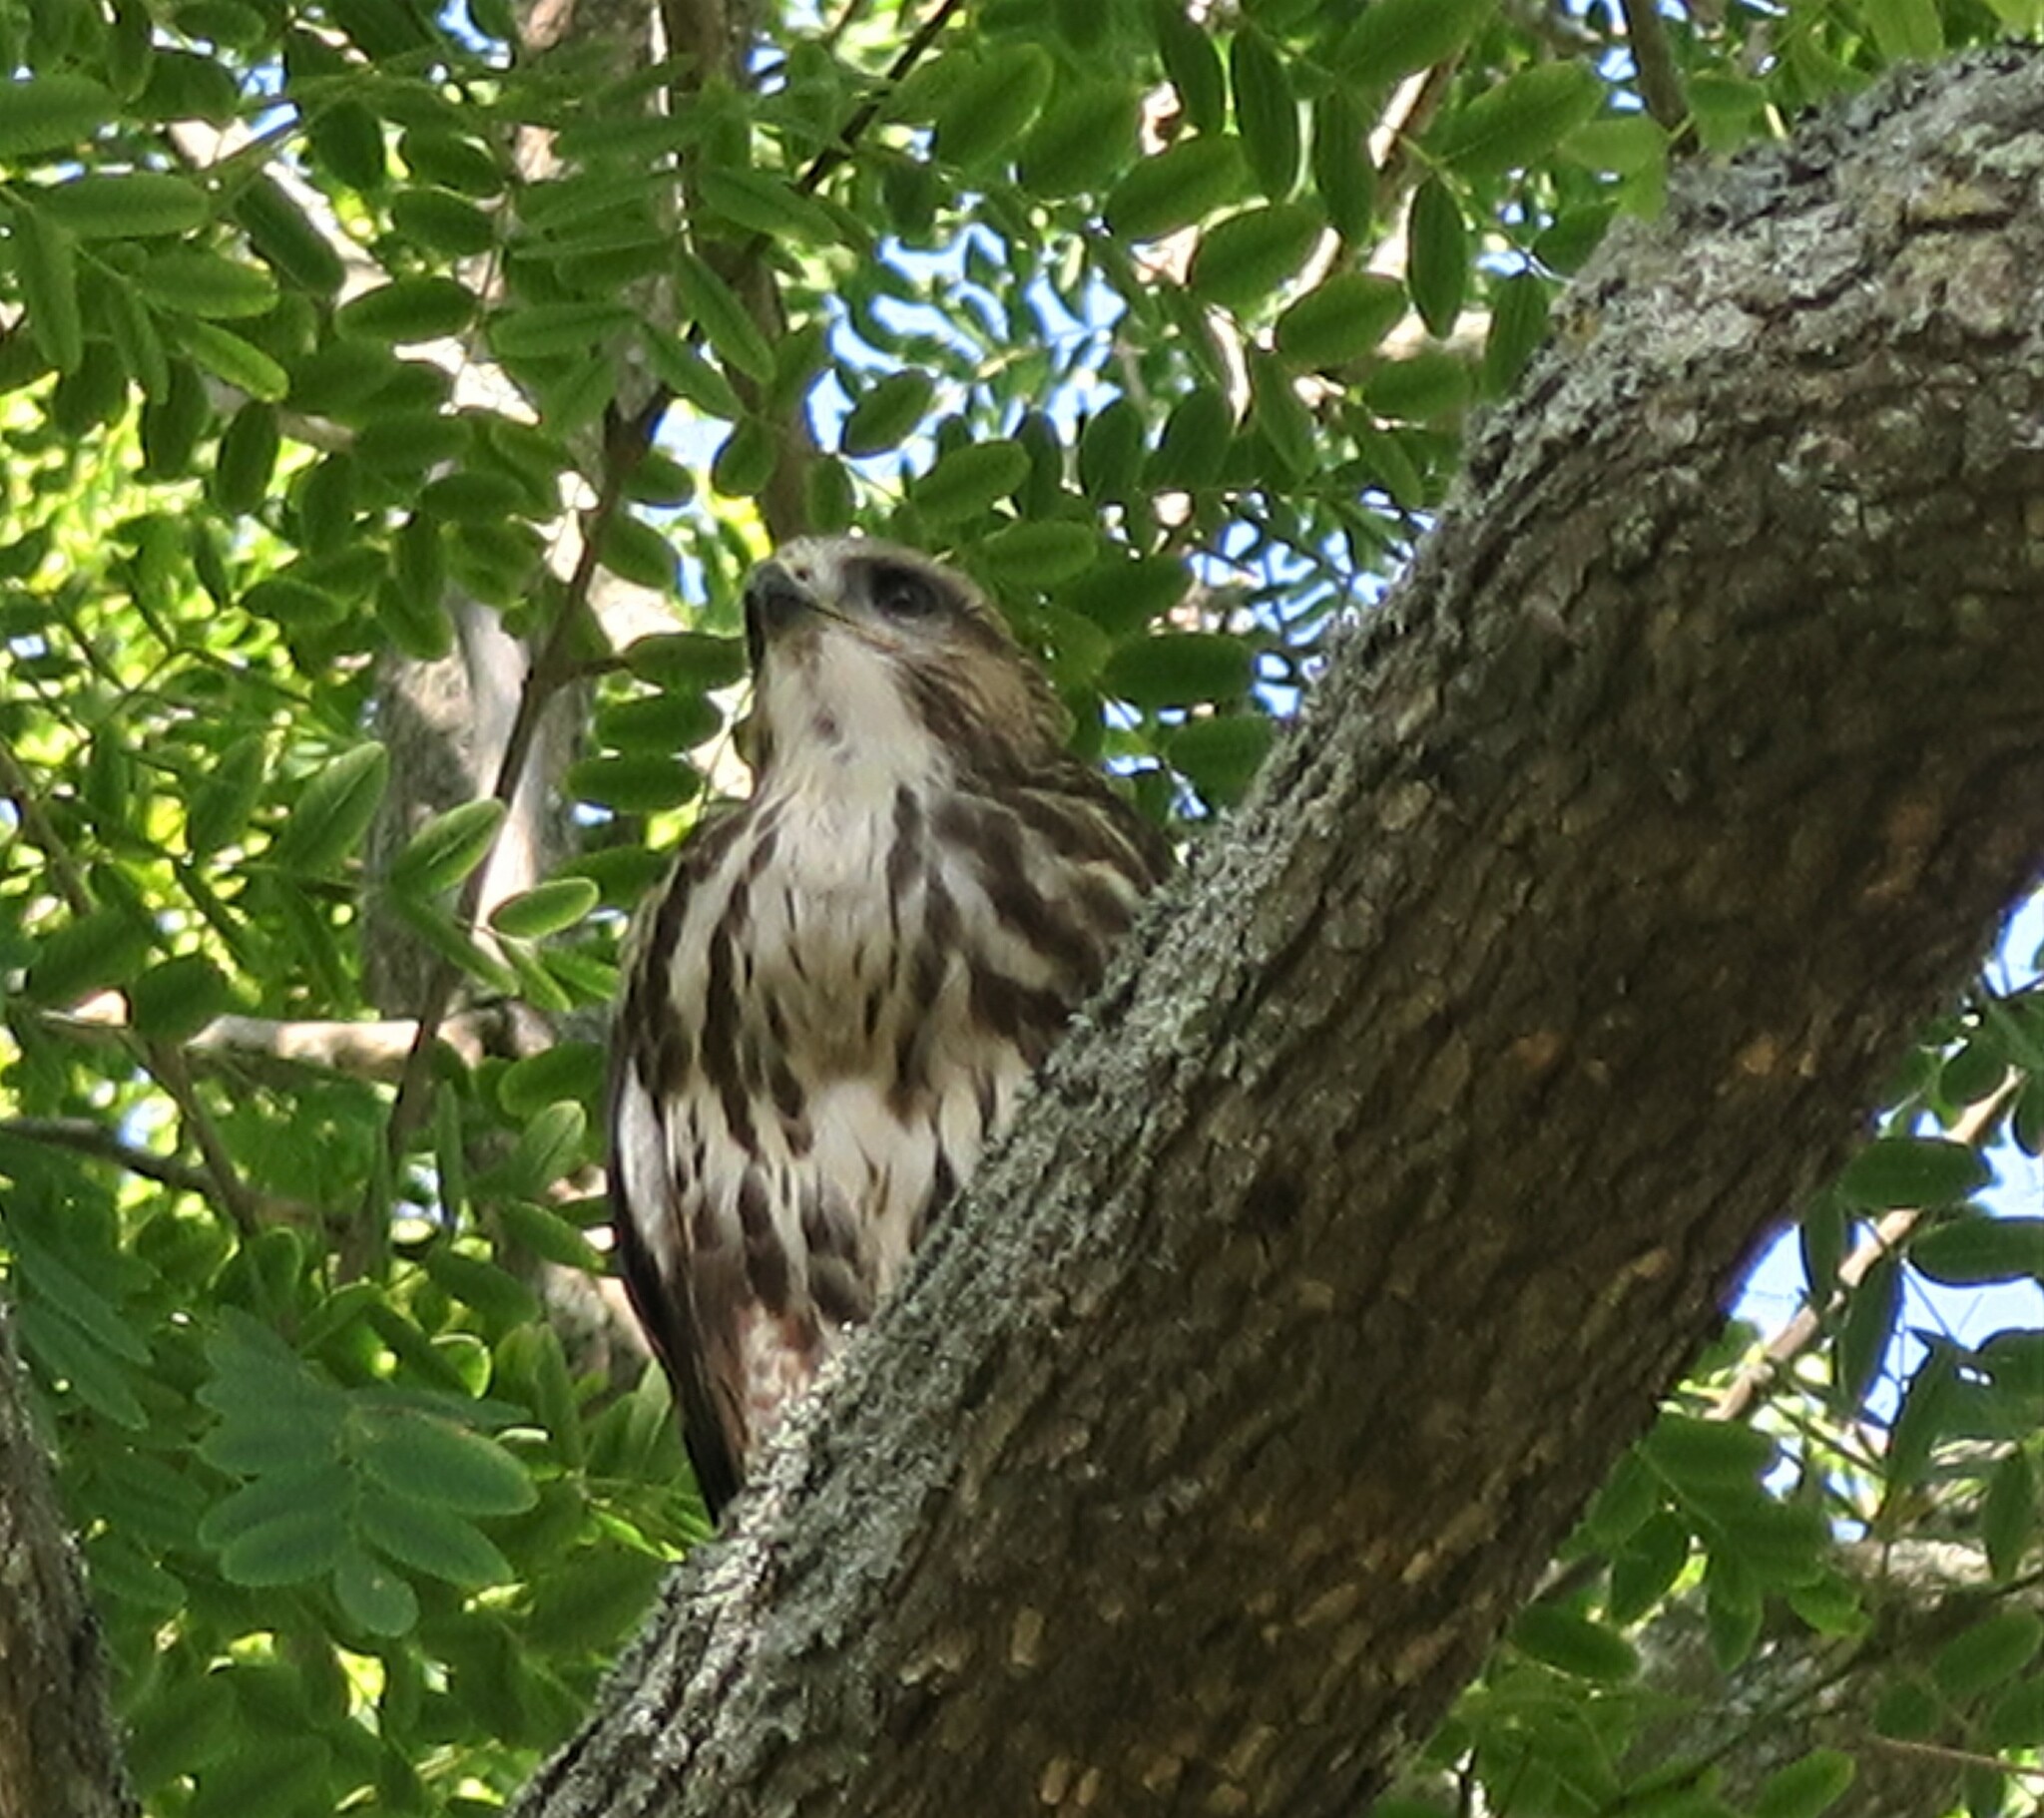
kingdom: Animalia
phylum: Chordata
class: Aves
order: Accipitriformes
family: Accipitridae
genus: Buteo
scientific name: Buteo trizonatus
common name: Forest buzzard
